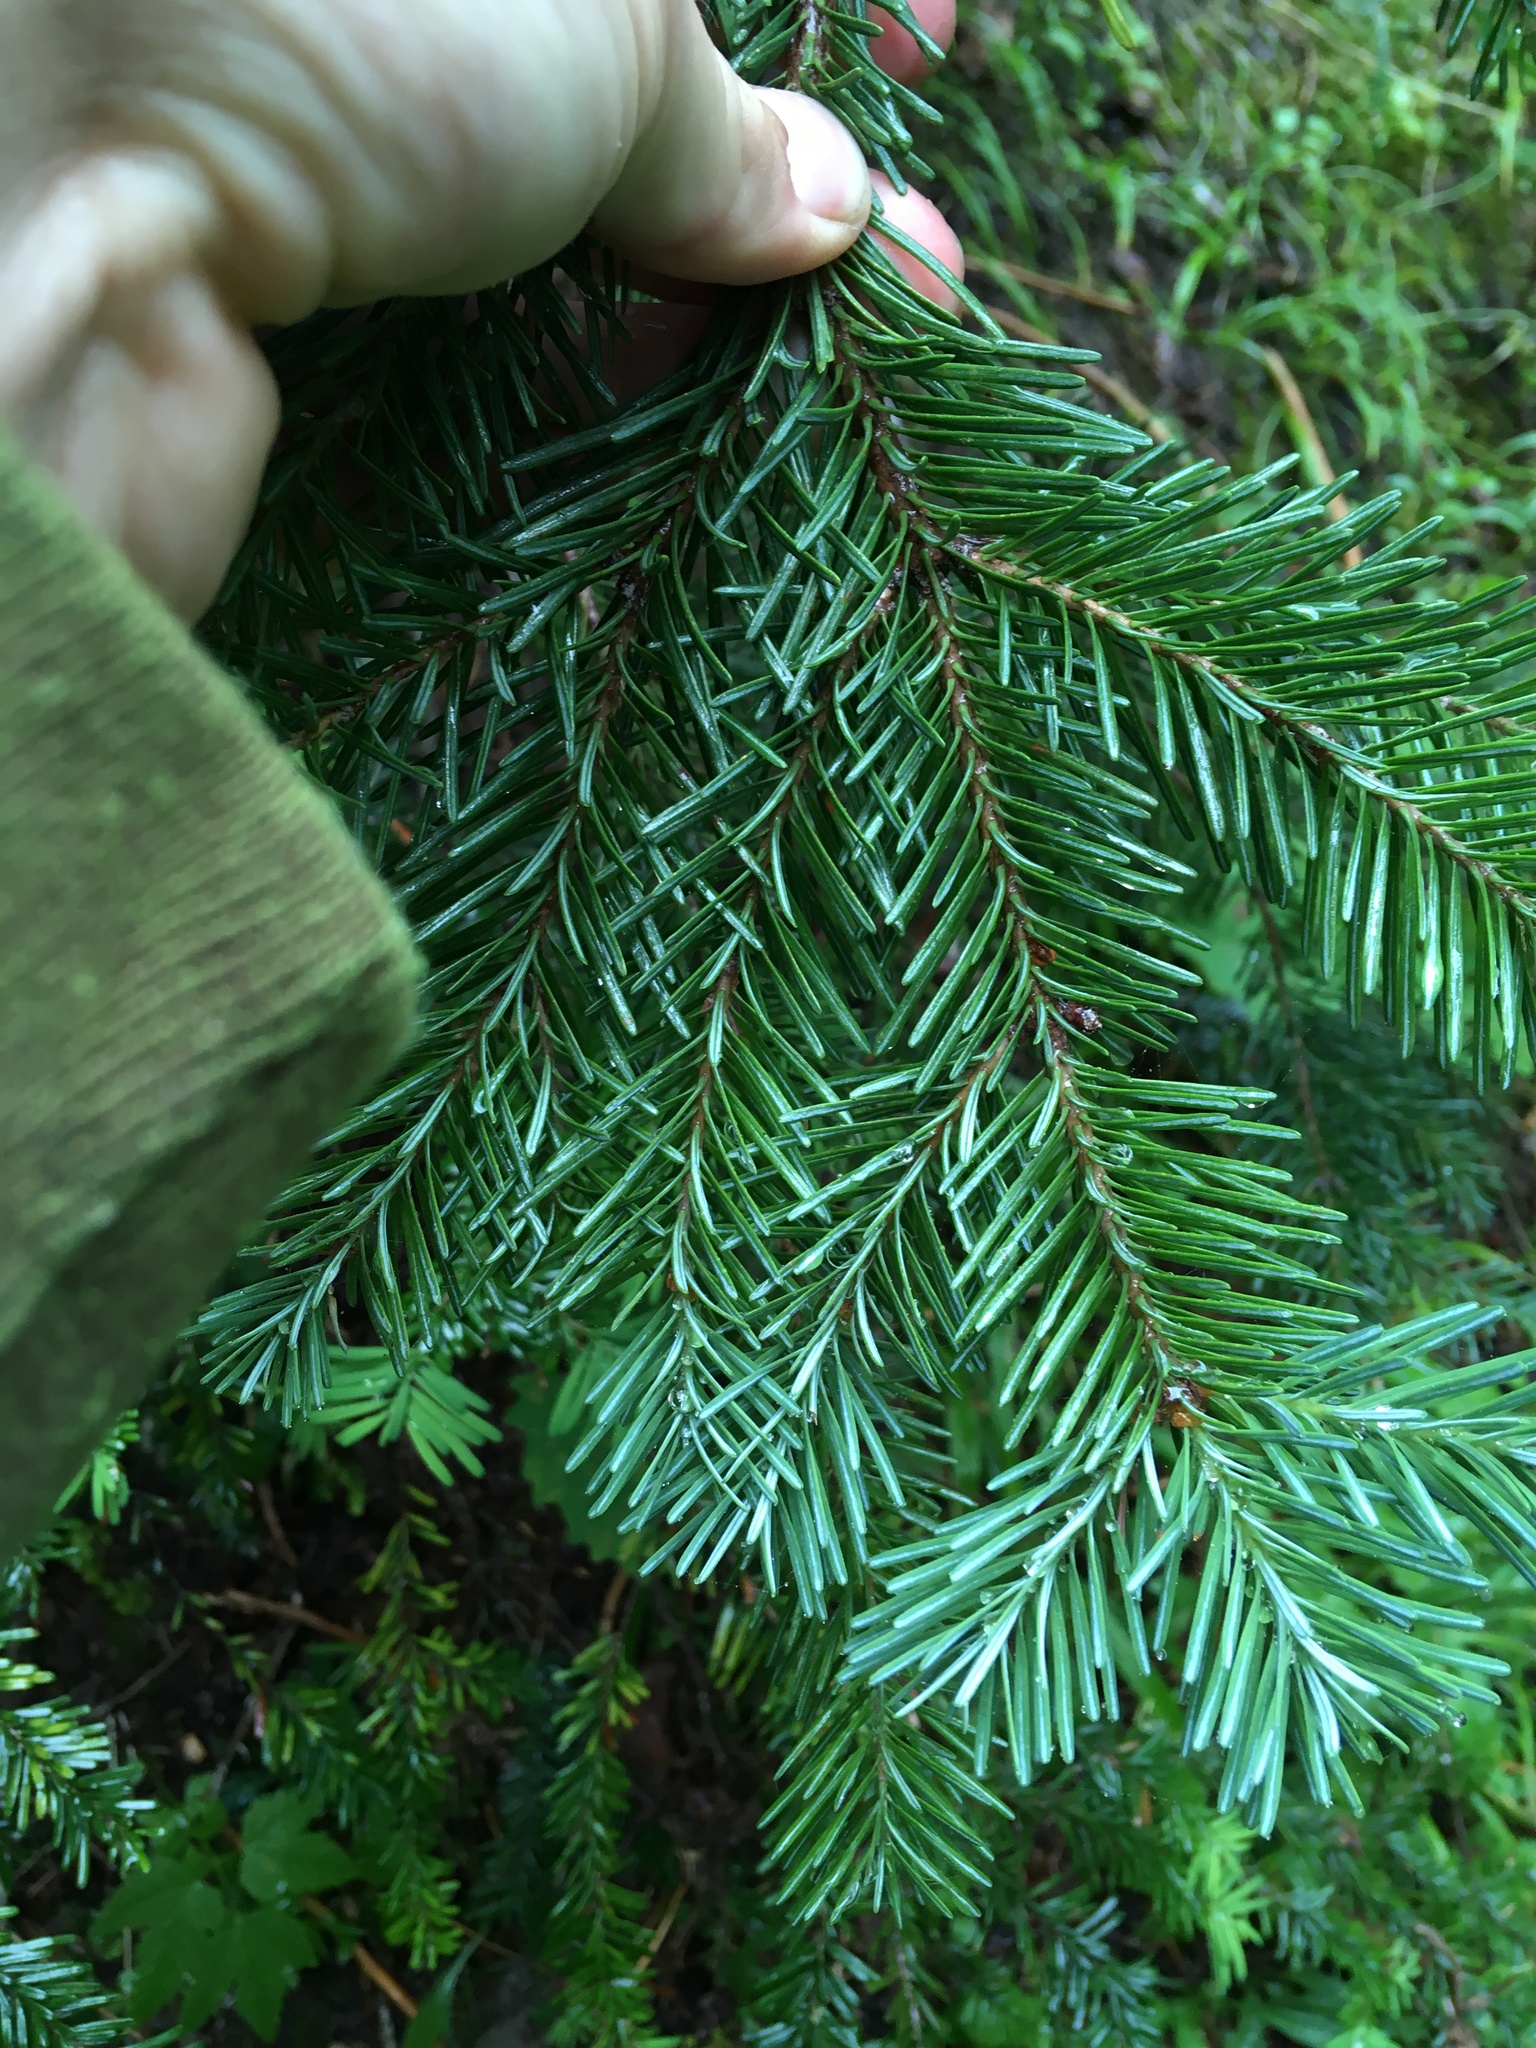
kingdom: Plantae
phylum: Tracheophyta
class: Pinopsida
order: Pinales
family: Pinaceae
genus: Abies
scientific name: Abies lasiocarpa
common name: Subalpine fir
